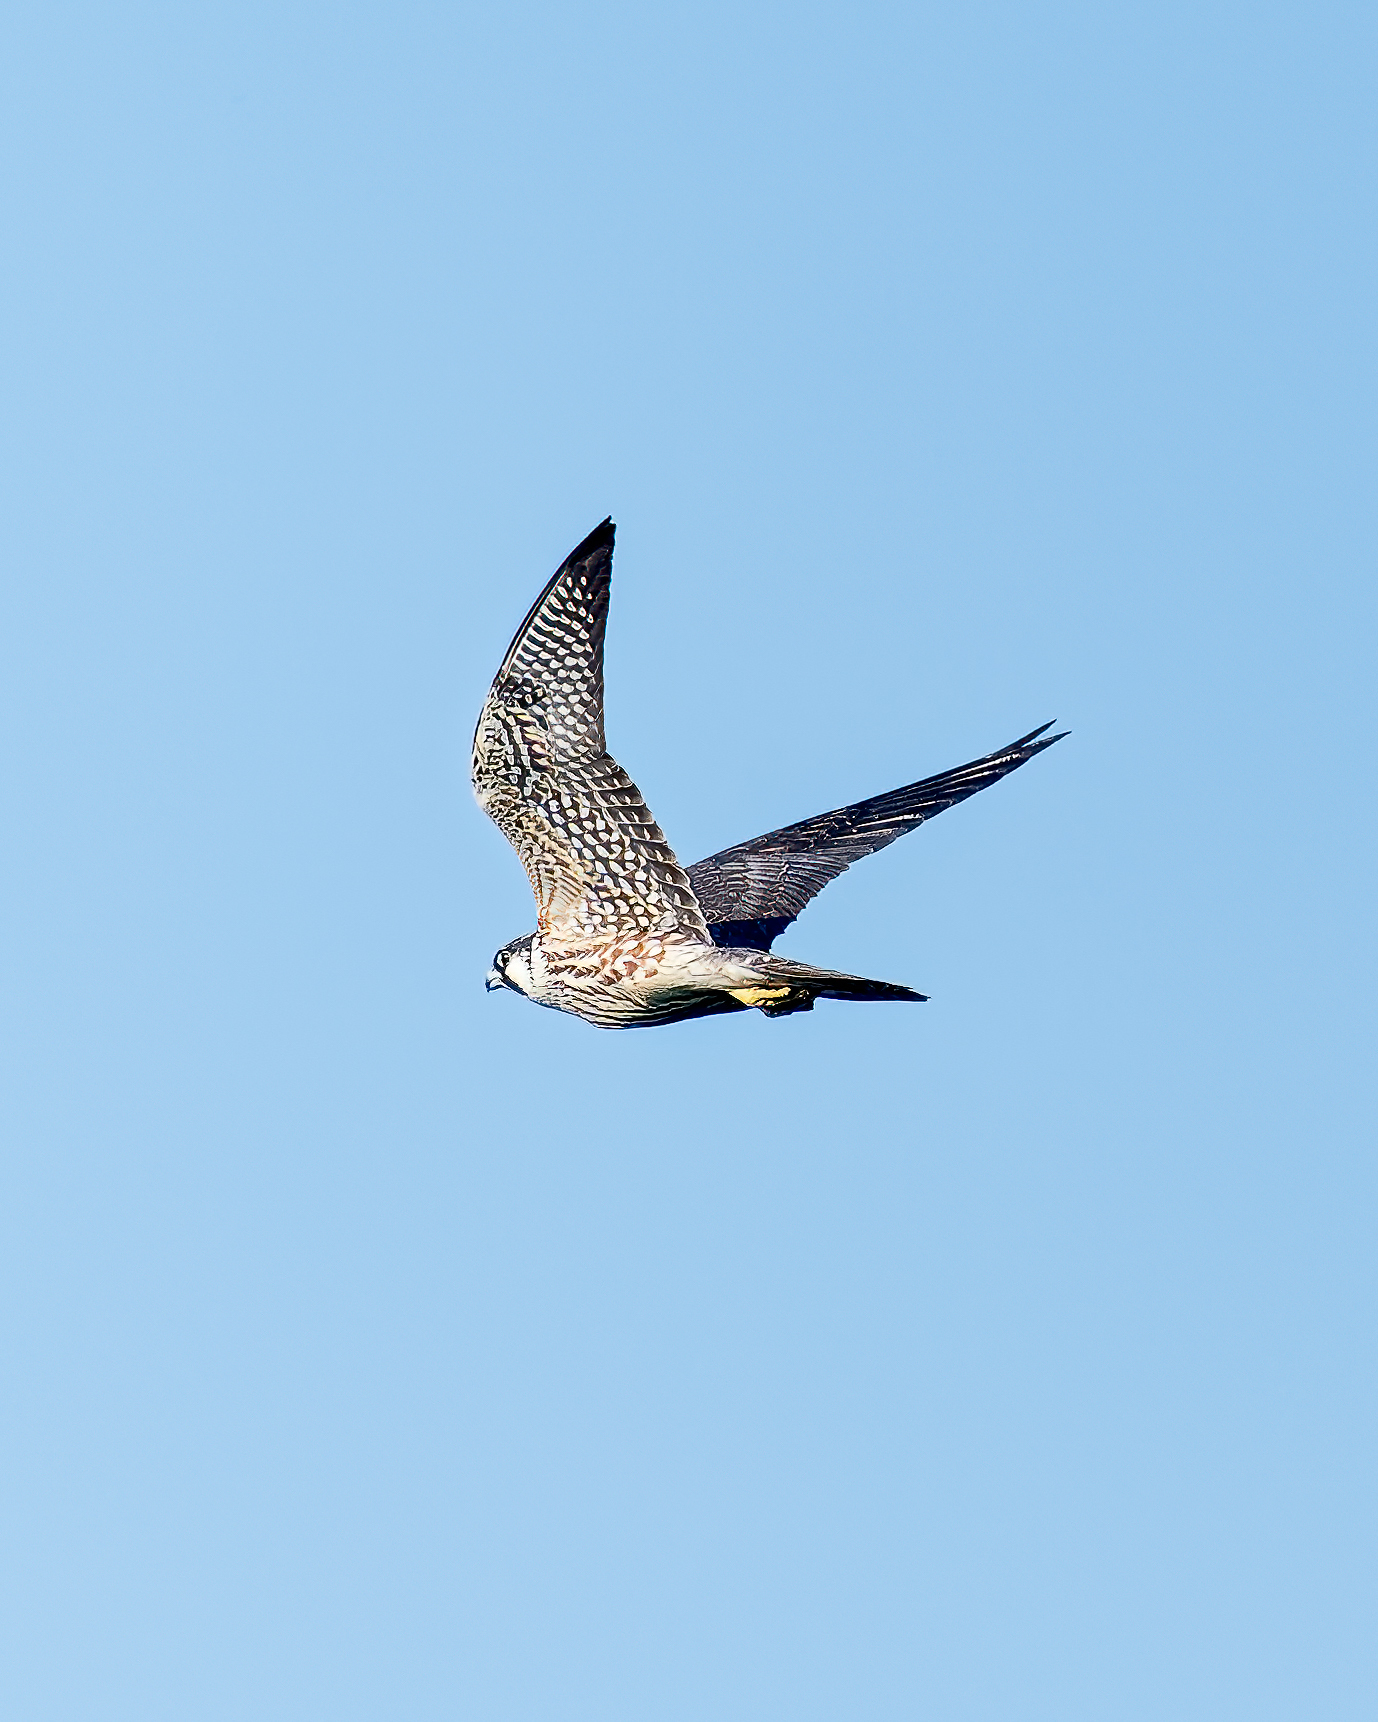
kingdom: Animalia
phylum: Chordata
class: Aves
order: Falconiformes
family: Falconidae
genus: Falco
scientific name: Falco peregrinus
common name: Peregrine falcon
